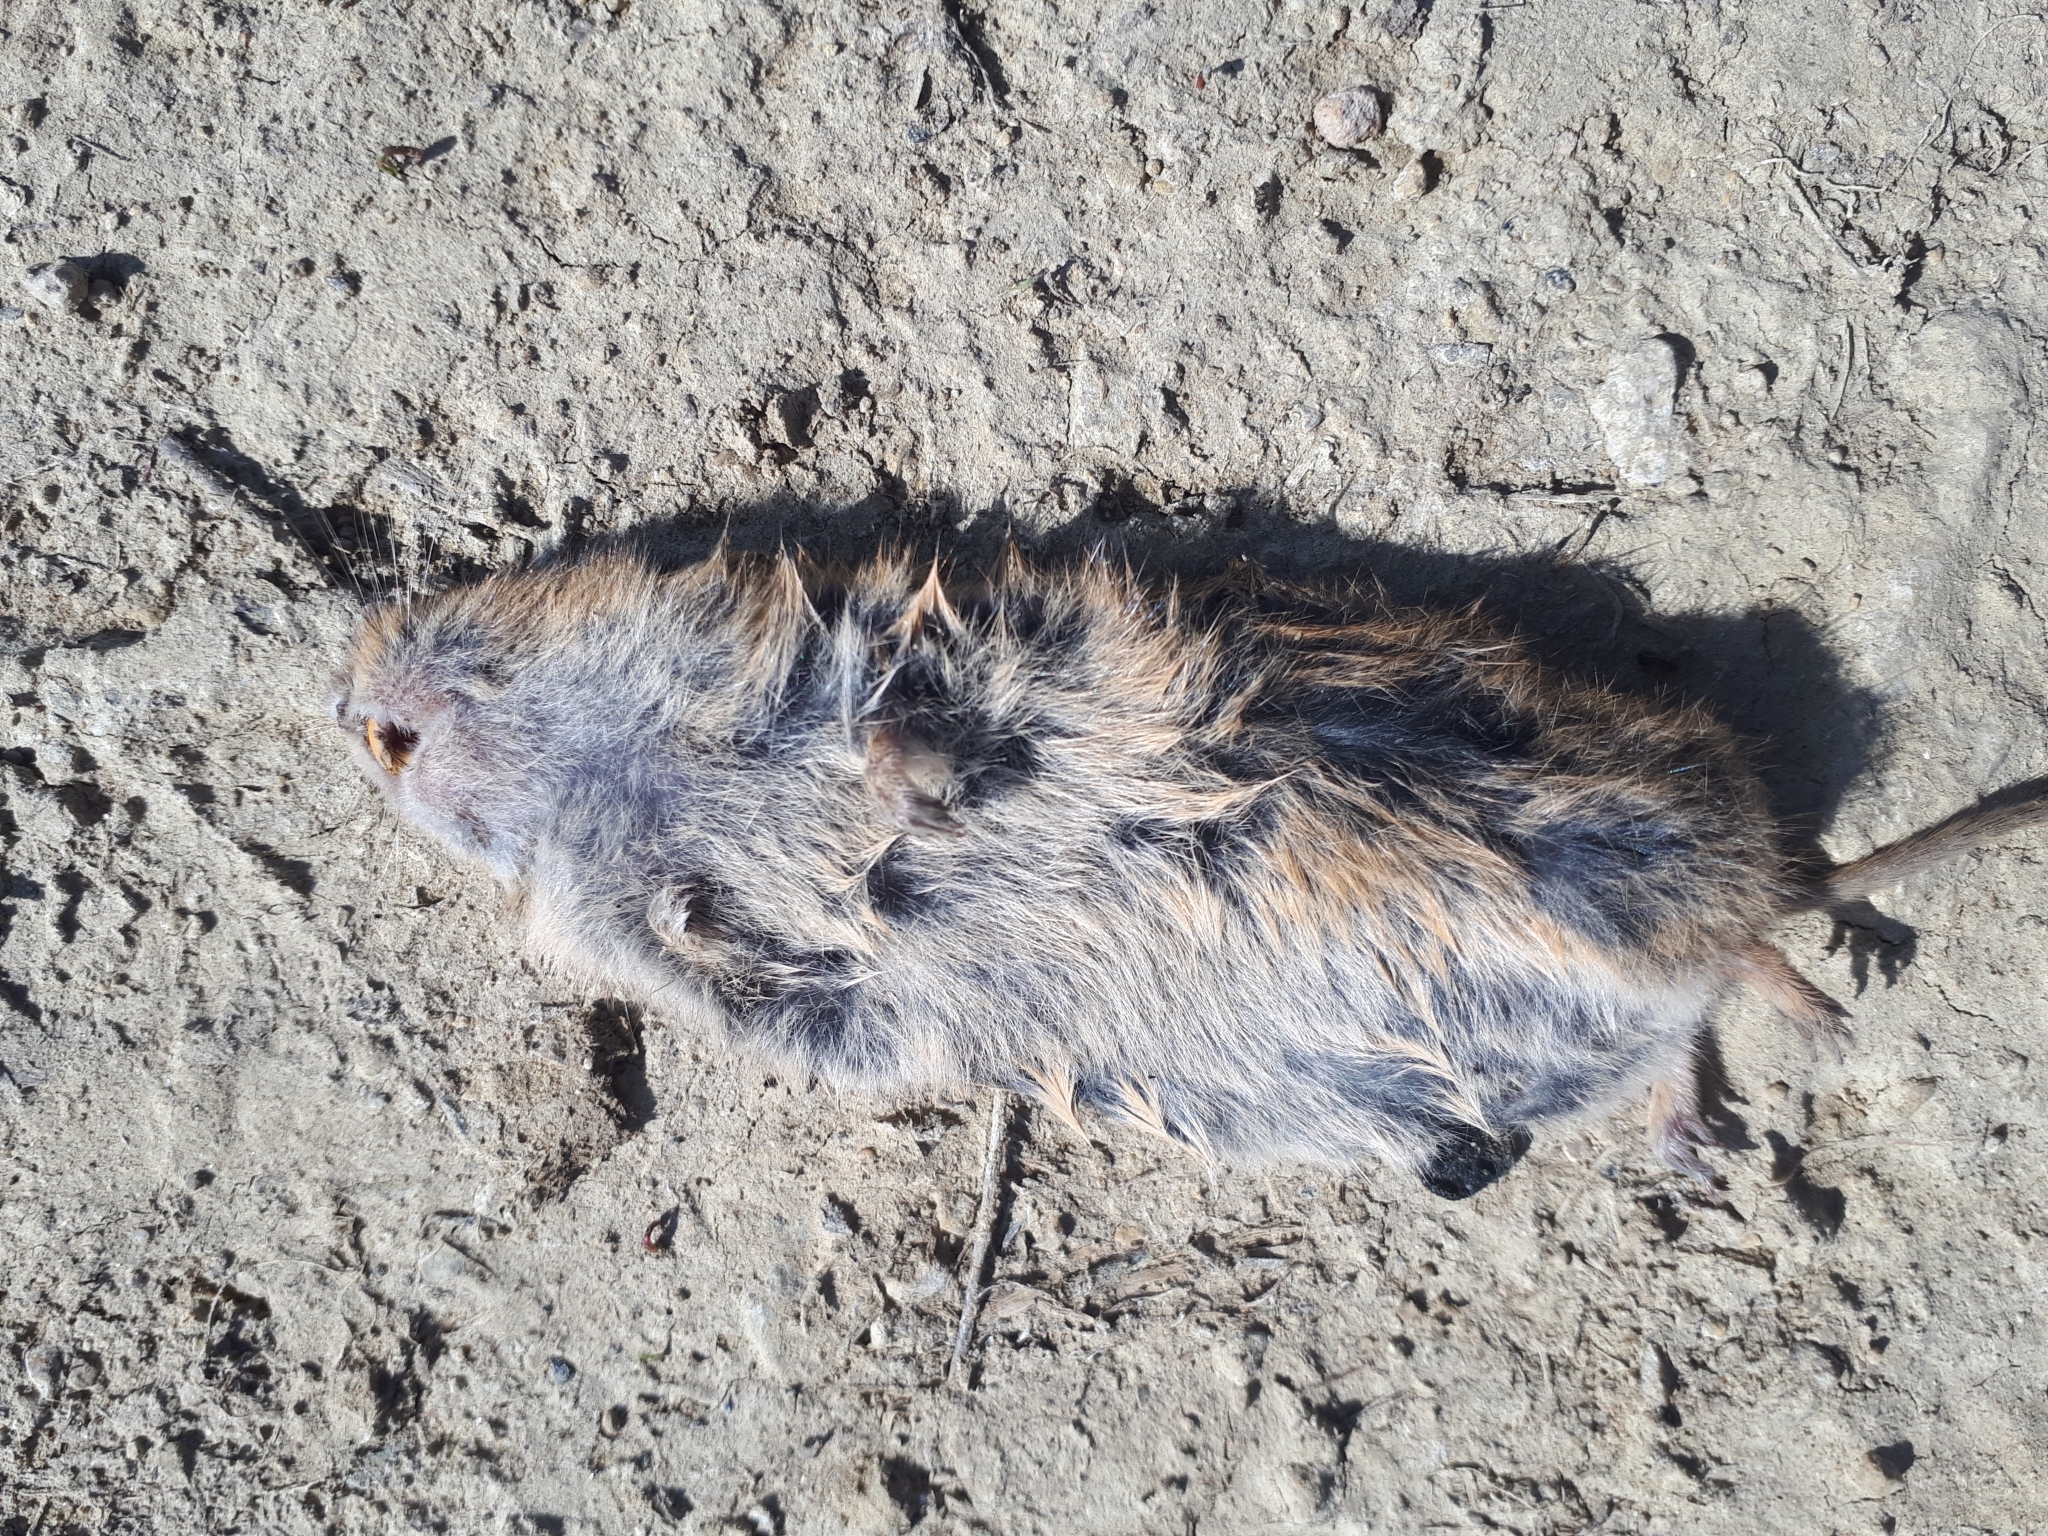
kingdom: Animalia
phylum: Chordata
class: Mammalia
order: Rodentia
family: Cricetidae
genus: Microtus
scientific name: Microtus arvalis
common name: Common vole
